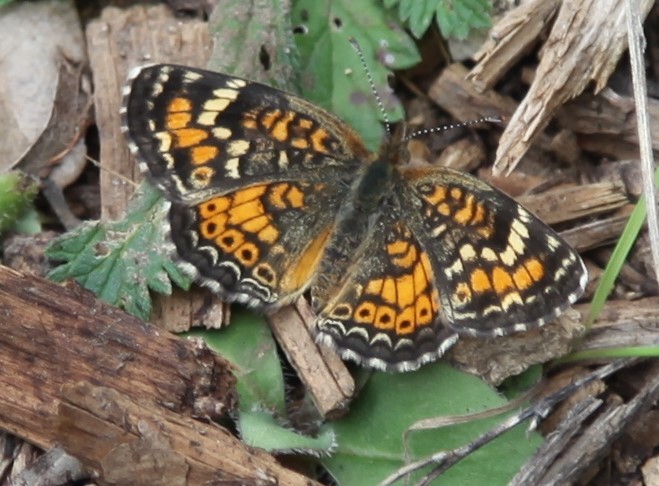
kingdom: Animalia
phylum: Arthropoda
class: Insecta
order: Lepidoptera
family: Nymphalidae
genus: Phyciodes
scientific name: Phyciodes phaon
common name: Phaon crescent
